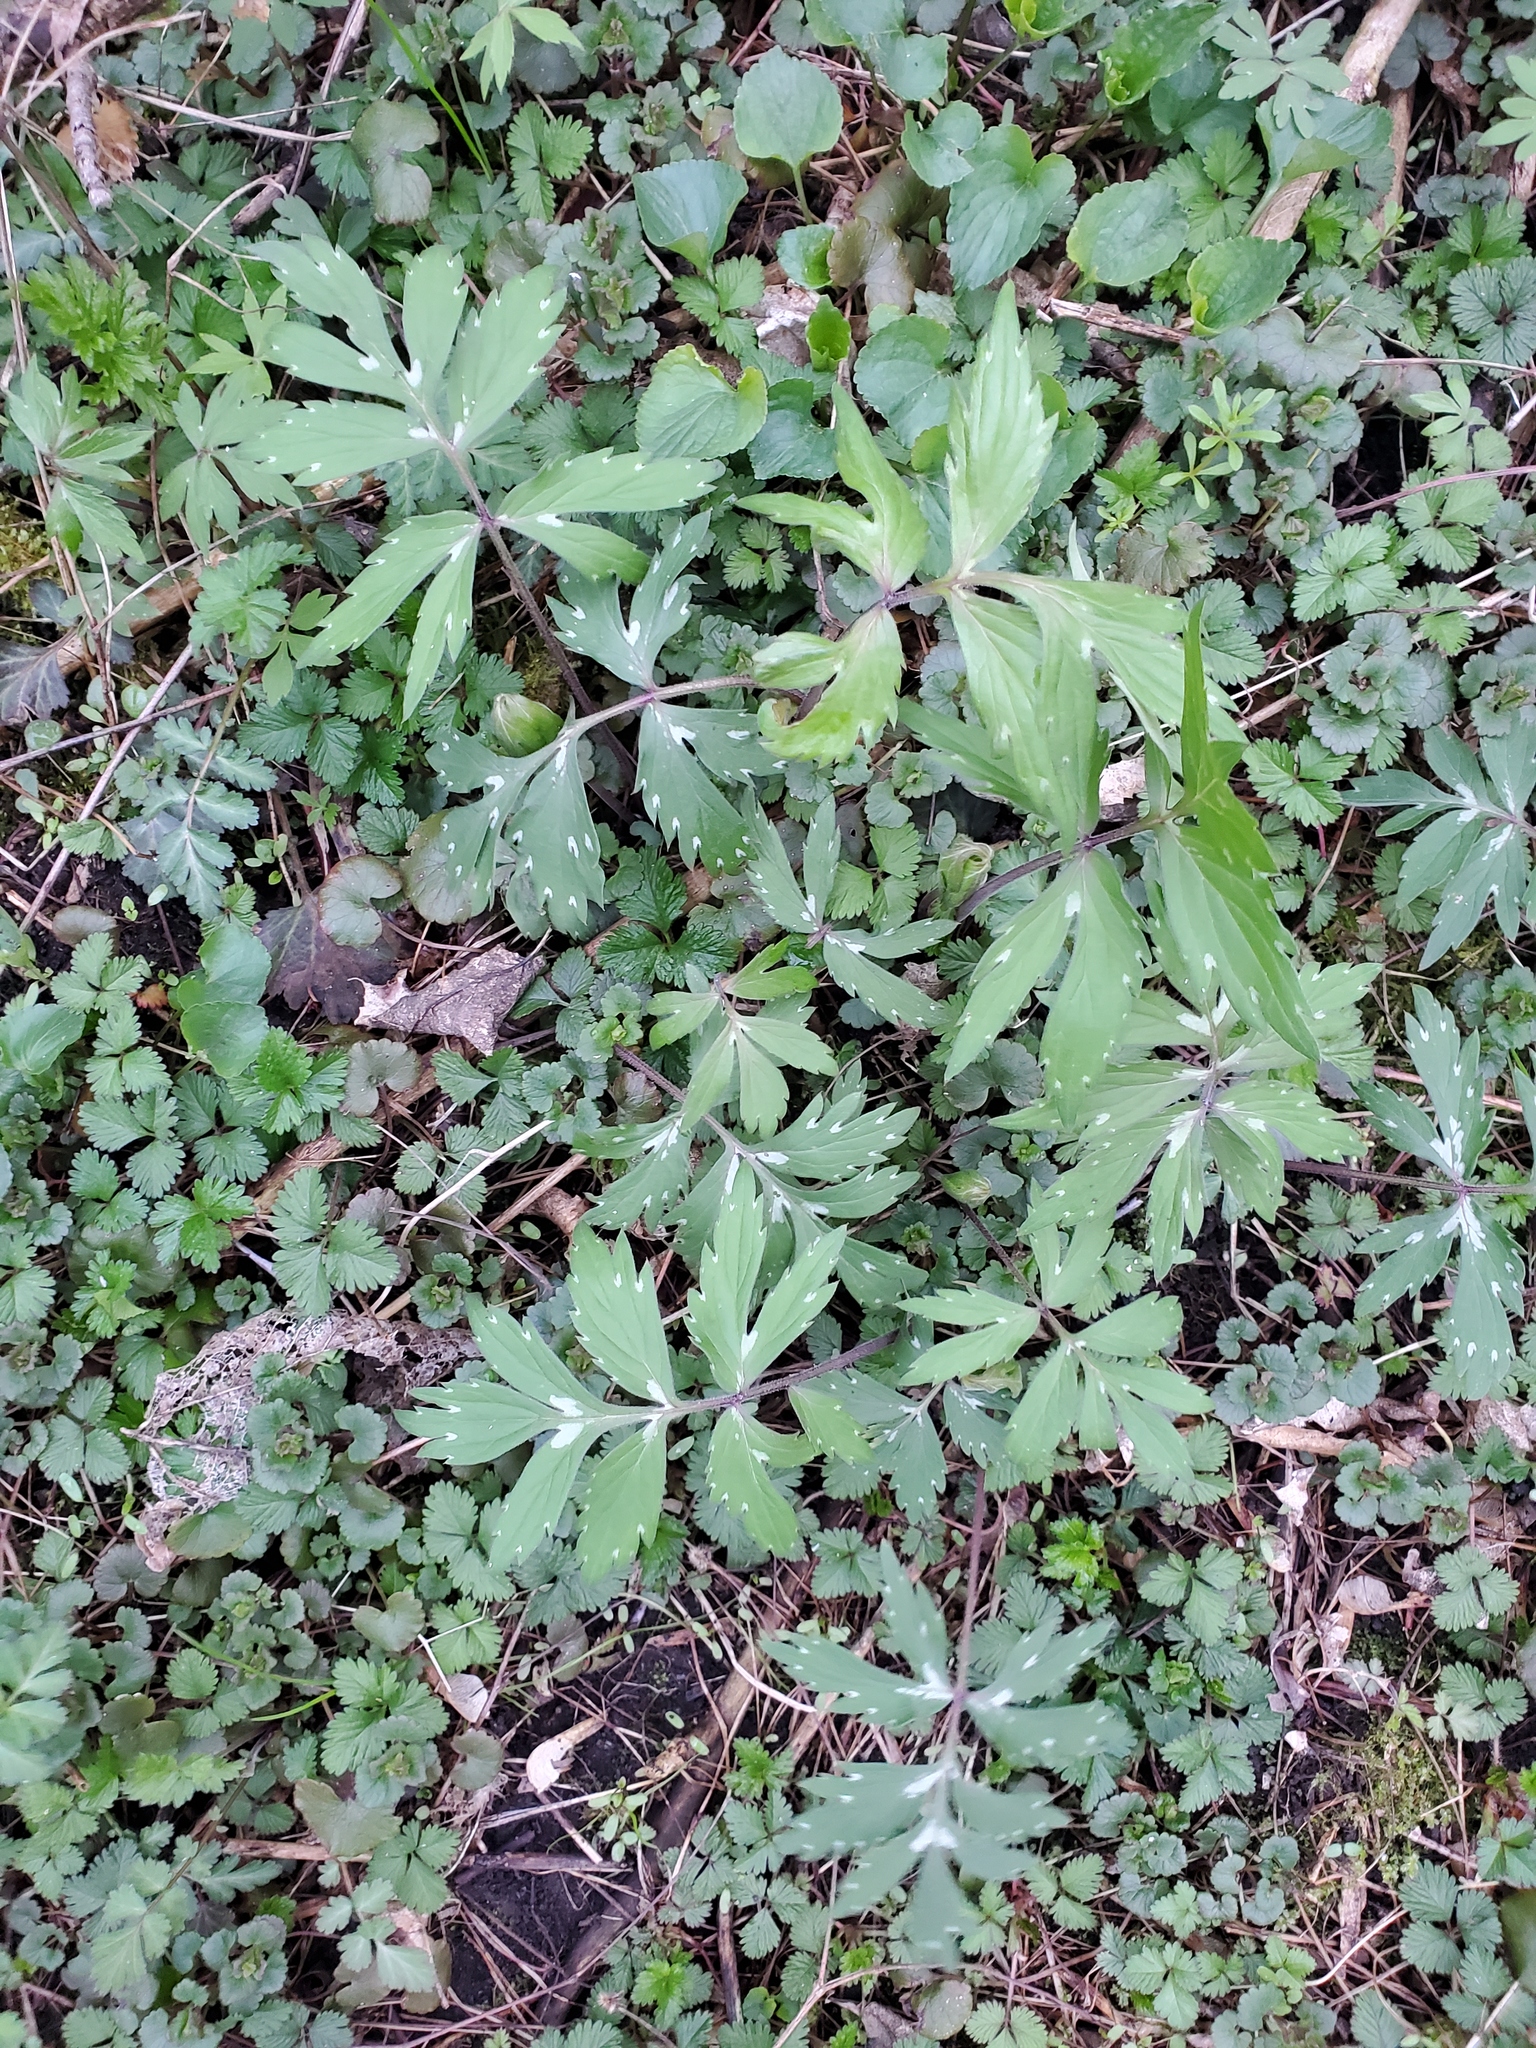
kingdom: Plantae
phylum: Tracheophyta
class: Magnoliopsida
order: Boraginales
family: Hydrophyllaceae
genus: Hydrophyllum
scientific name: Hydrophyllum virginianum
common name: Virginia waterleaf
